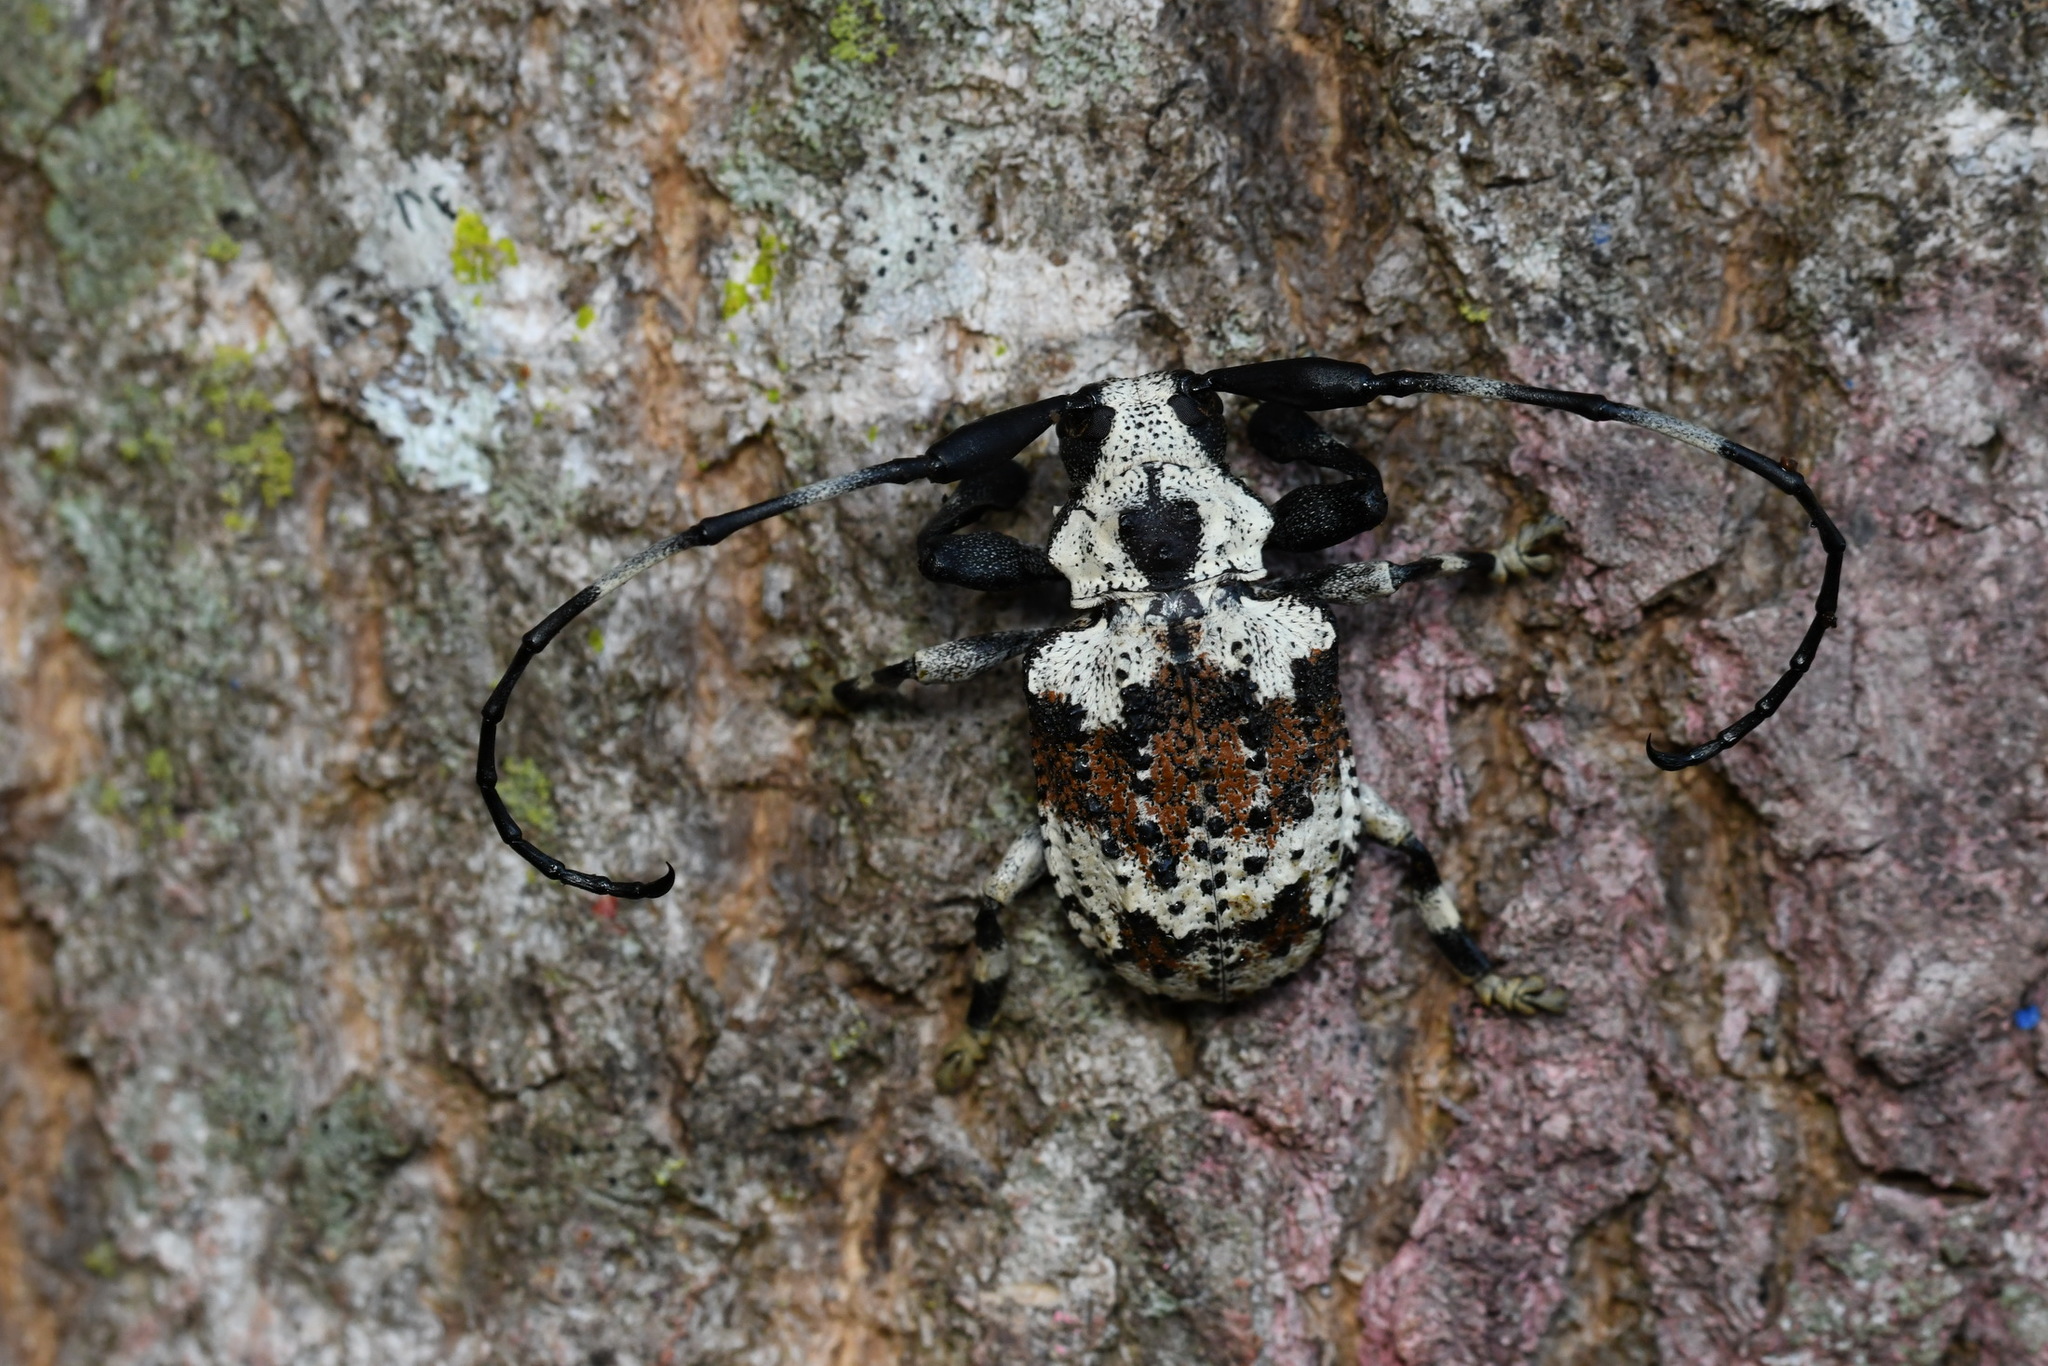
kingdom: Animalia
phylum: Arthropoda
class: Insecta
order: Coleoptera
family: Cerambycidae
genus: Onychocerus
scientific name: Onychocerus albitarsis
